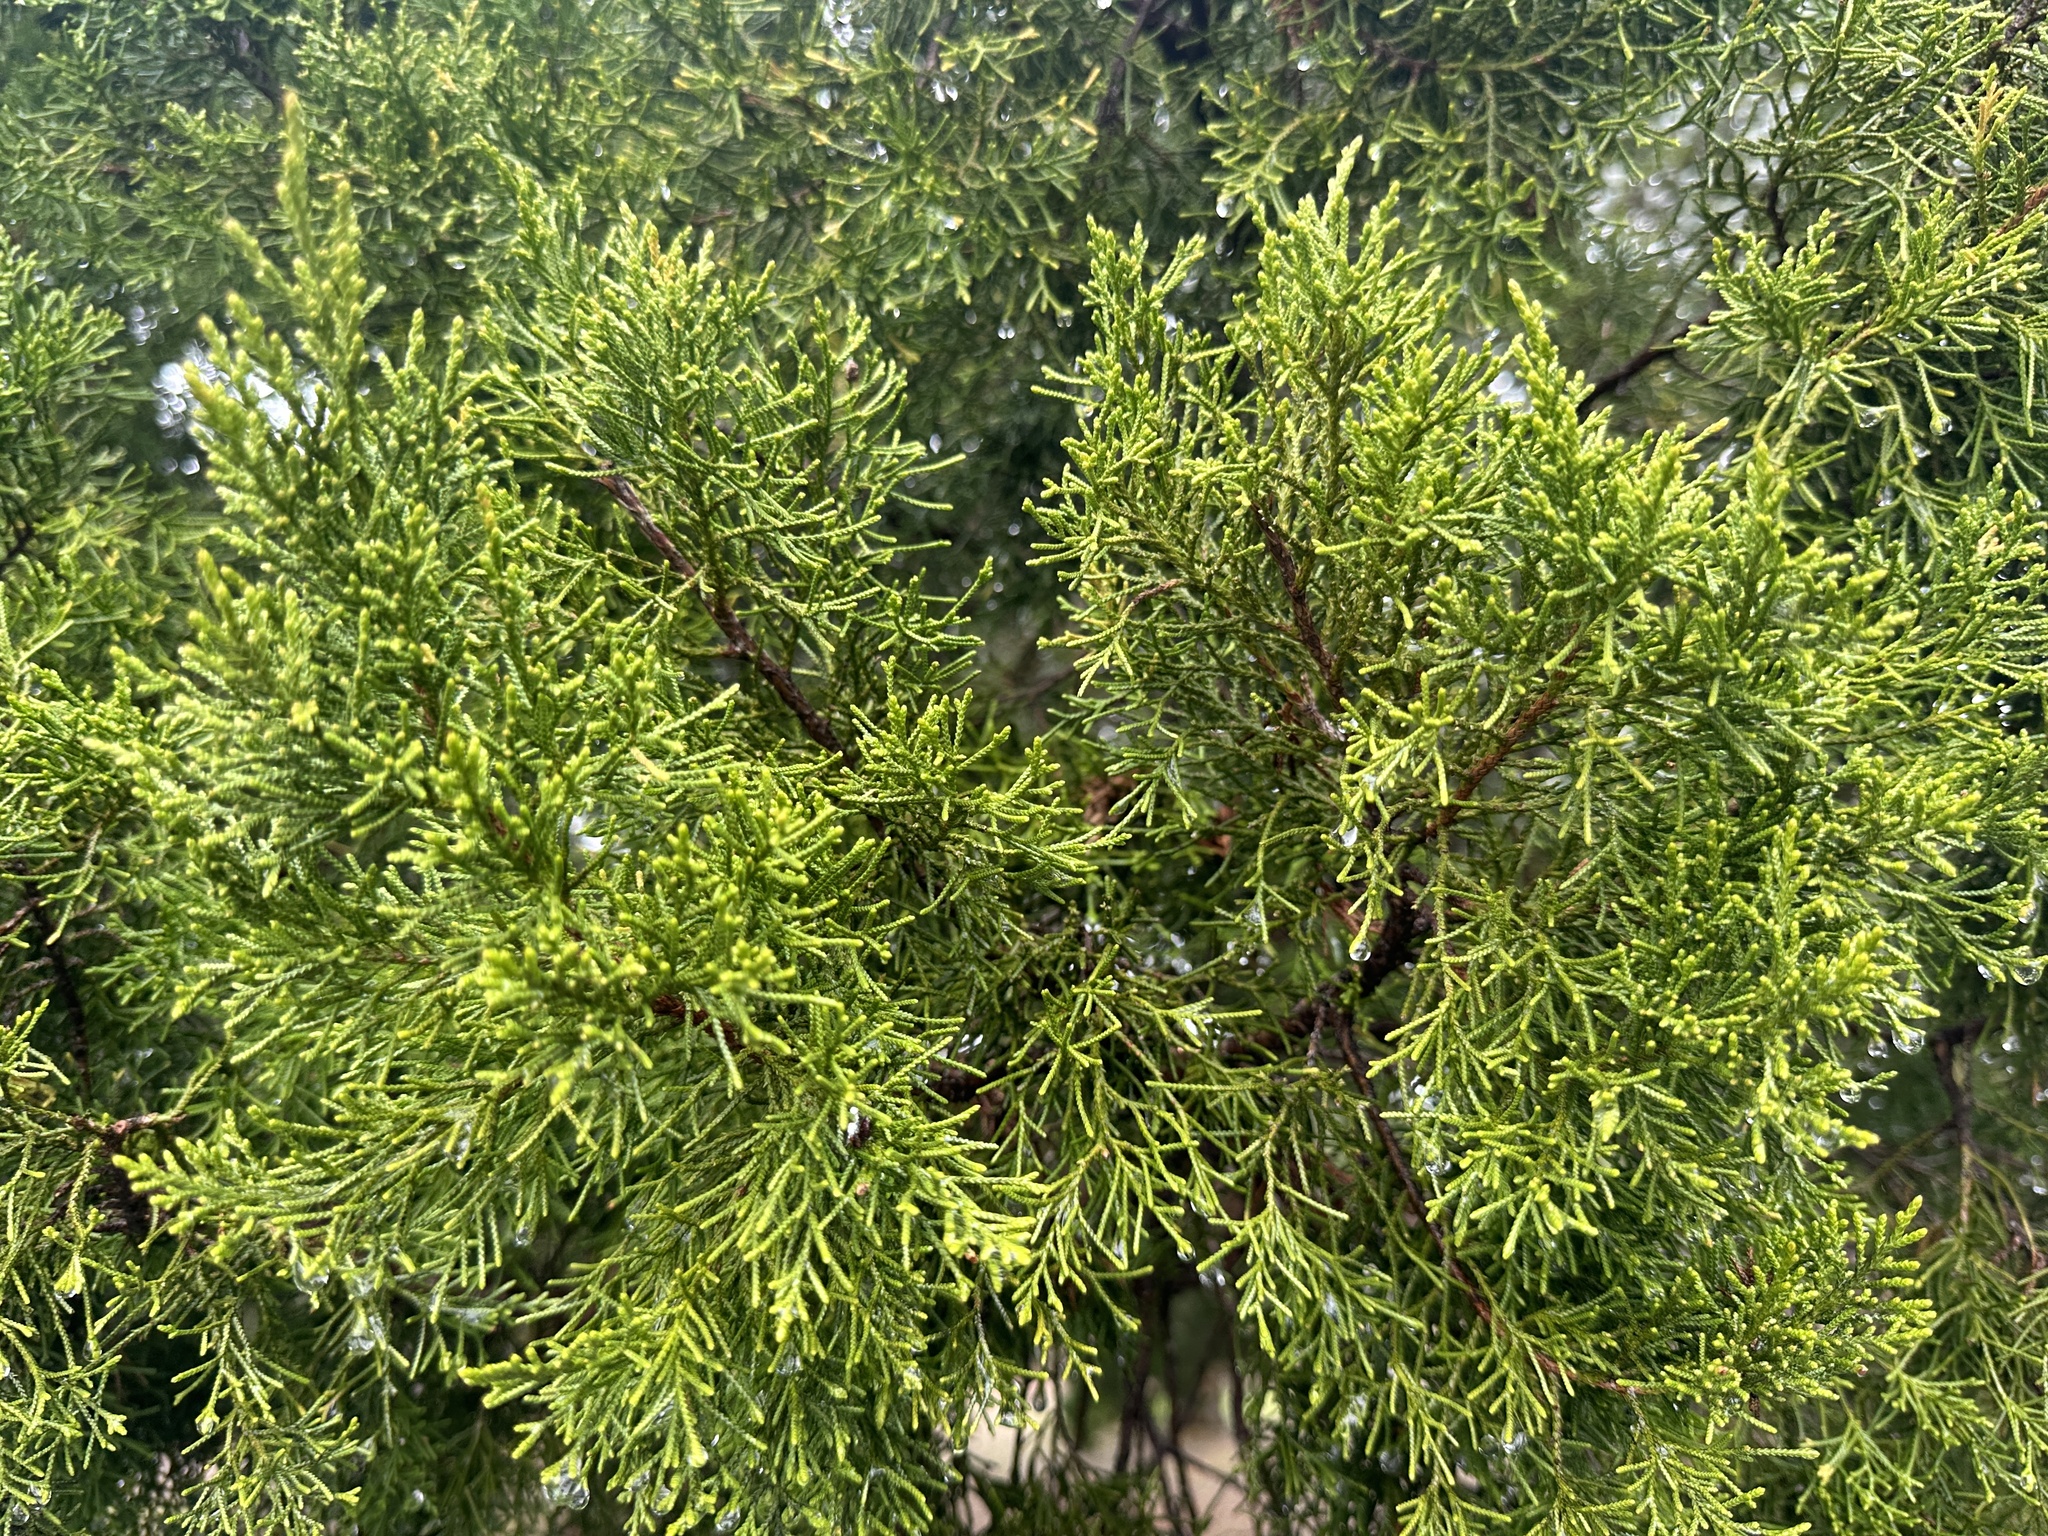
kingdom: Plantae
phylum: Tracheophyta
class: Pinopsida
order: Pinales
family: Cupressaceae
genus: Juniperus
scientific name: Juniperus virginiana
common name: Red juniper
